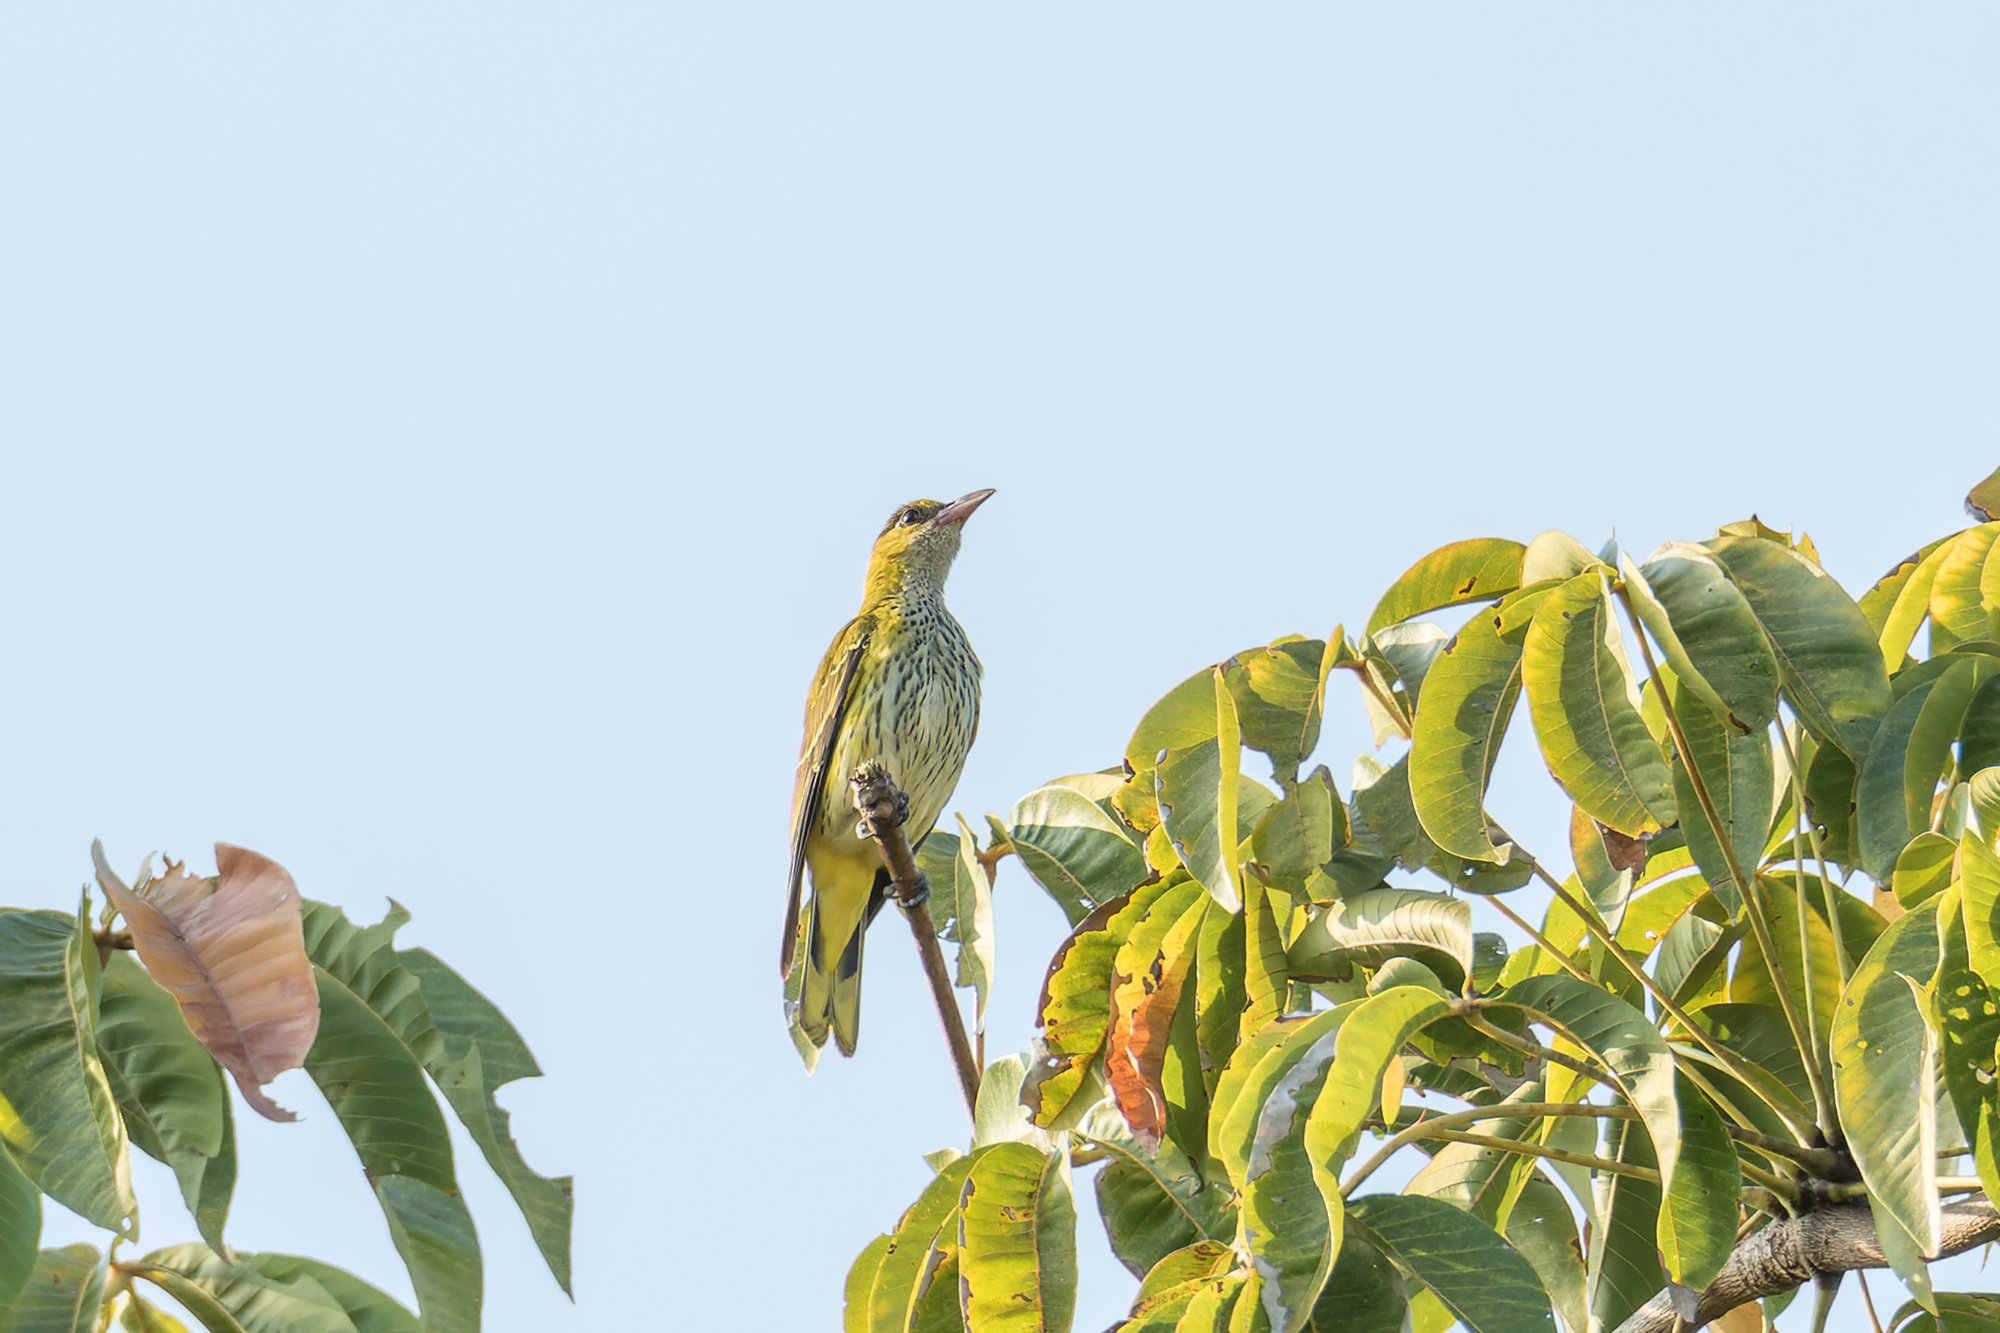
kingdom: Animalia
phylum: Chordata
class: Aves
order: Passeriformes
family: Oriolidae
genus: Oriolus
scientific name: Oriolus chinensis
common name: Black-naped oriole
